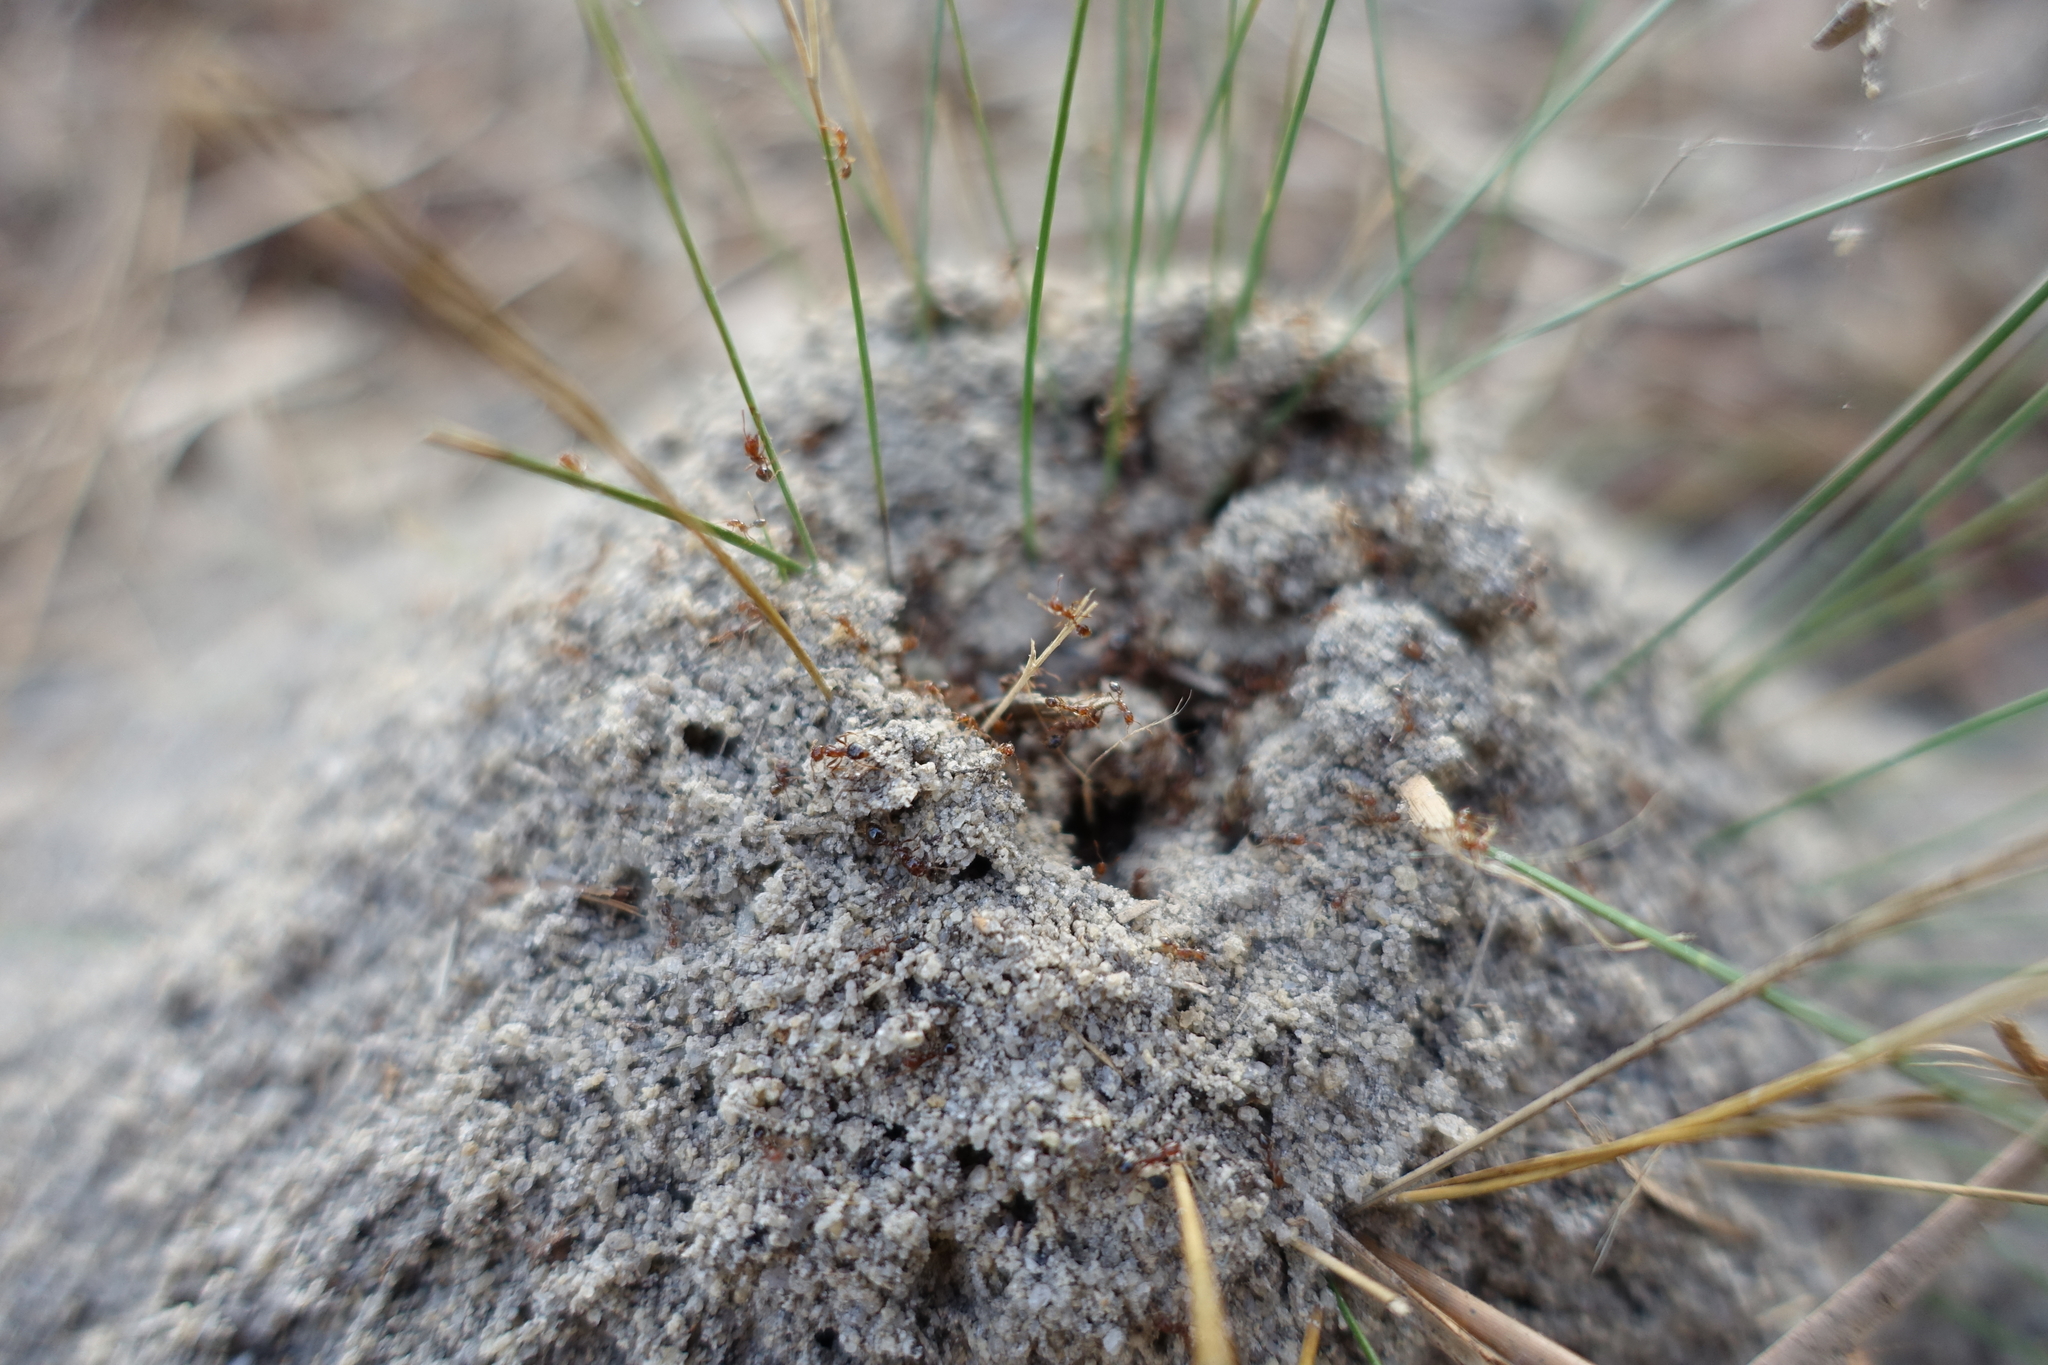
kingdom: Animalia
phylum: Arthropoda
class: Insecta
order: Hymenoptera
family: Formicidae
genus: Solenopsis
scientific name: Solenopsis invicta
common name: Red imported fire ant
